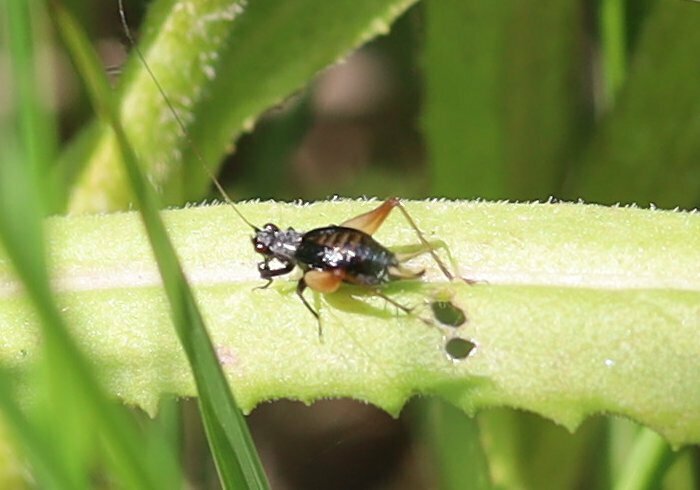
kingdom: Animalia
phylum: Arthropoda
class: Insecta
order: Orthoptera
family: Trigonidiidae
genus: Trigonidium
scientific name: Trigonidium cicindeloides
